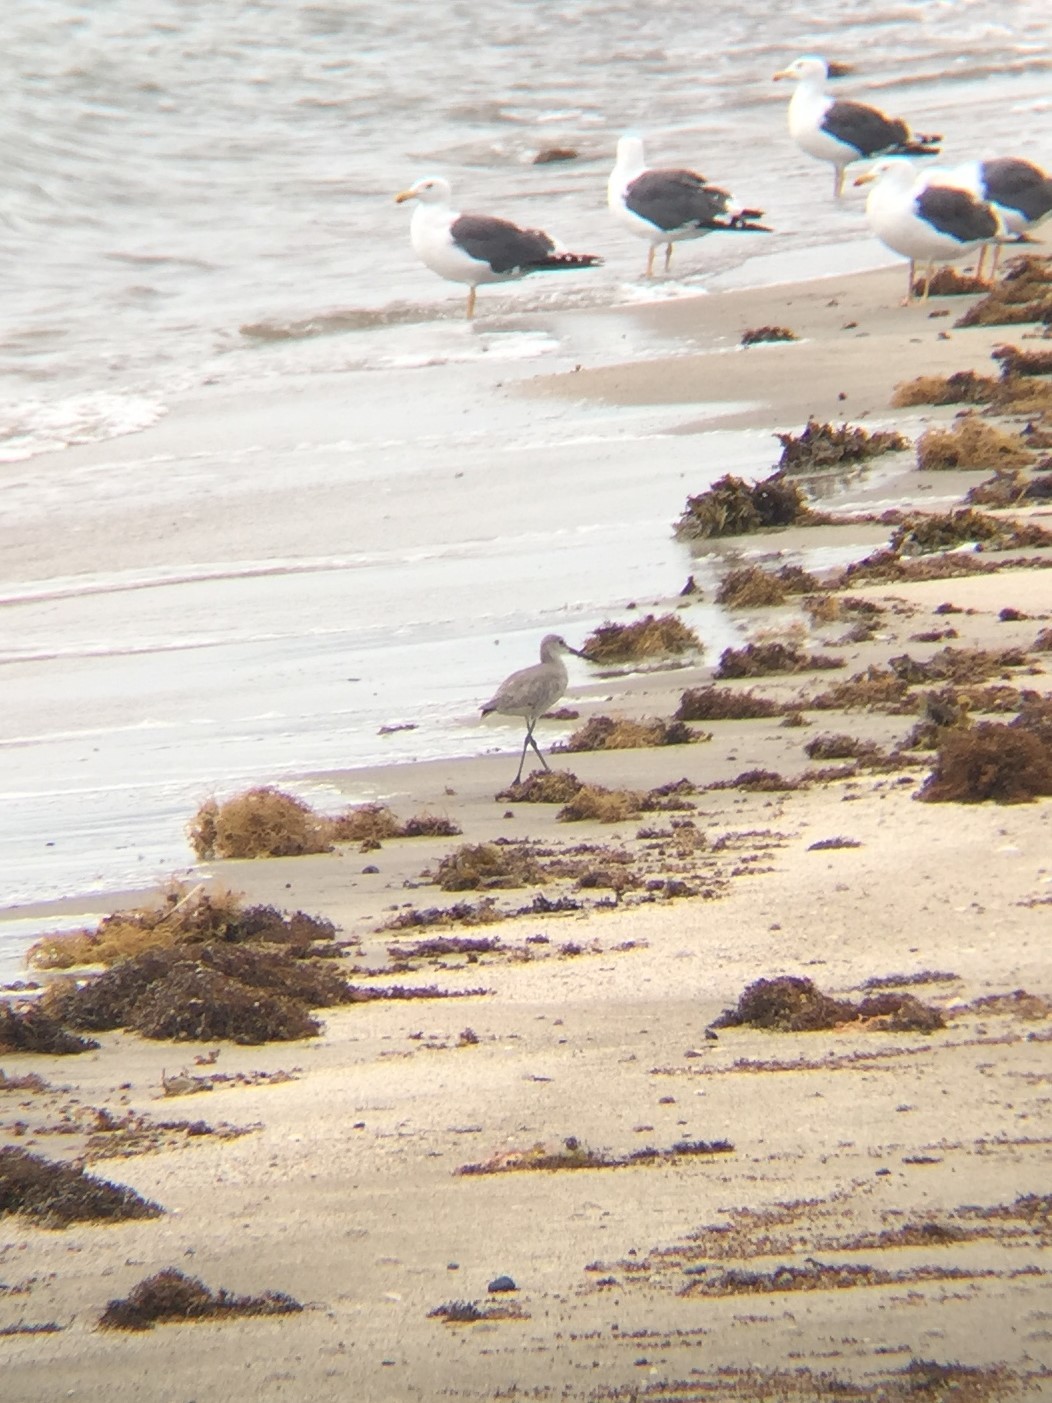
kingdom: Animalia
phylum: Chordata
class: Aves
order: Charadriiformes
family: Scolopacidae
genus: Tringa
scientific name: Tringa semipalmata
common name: Willet
